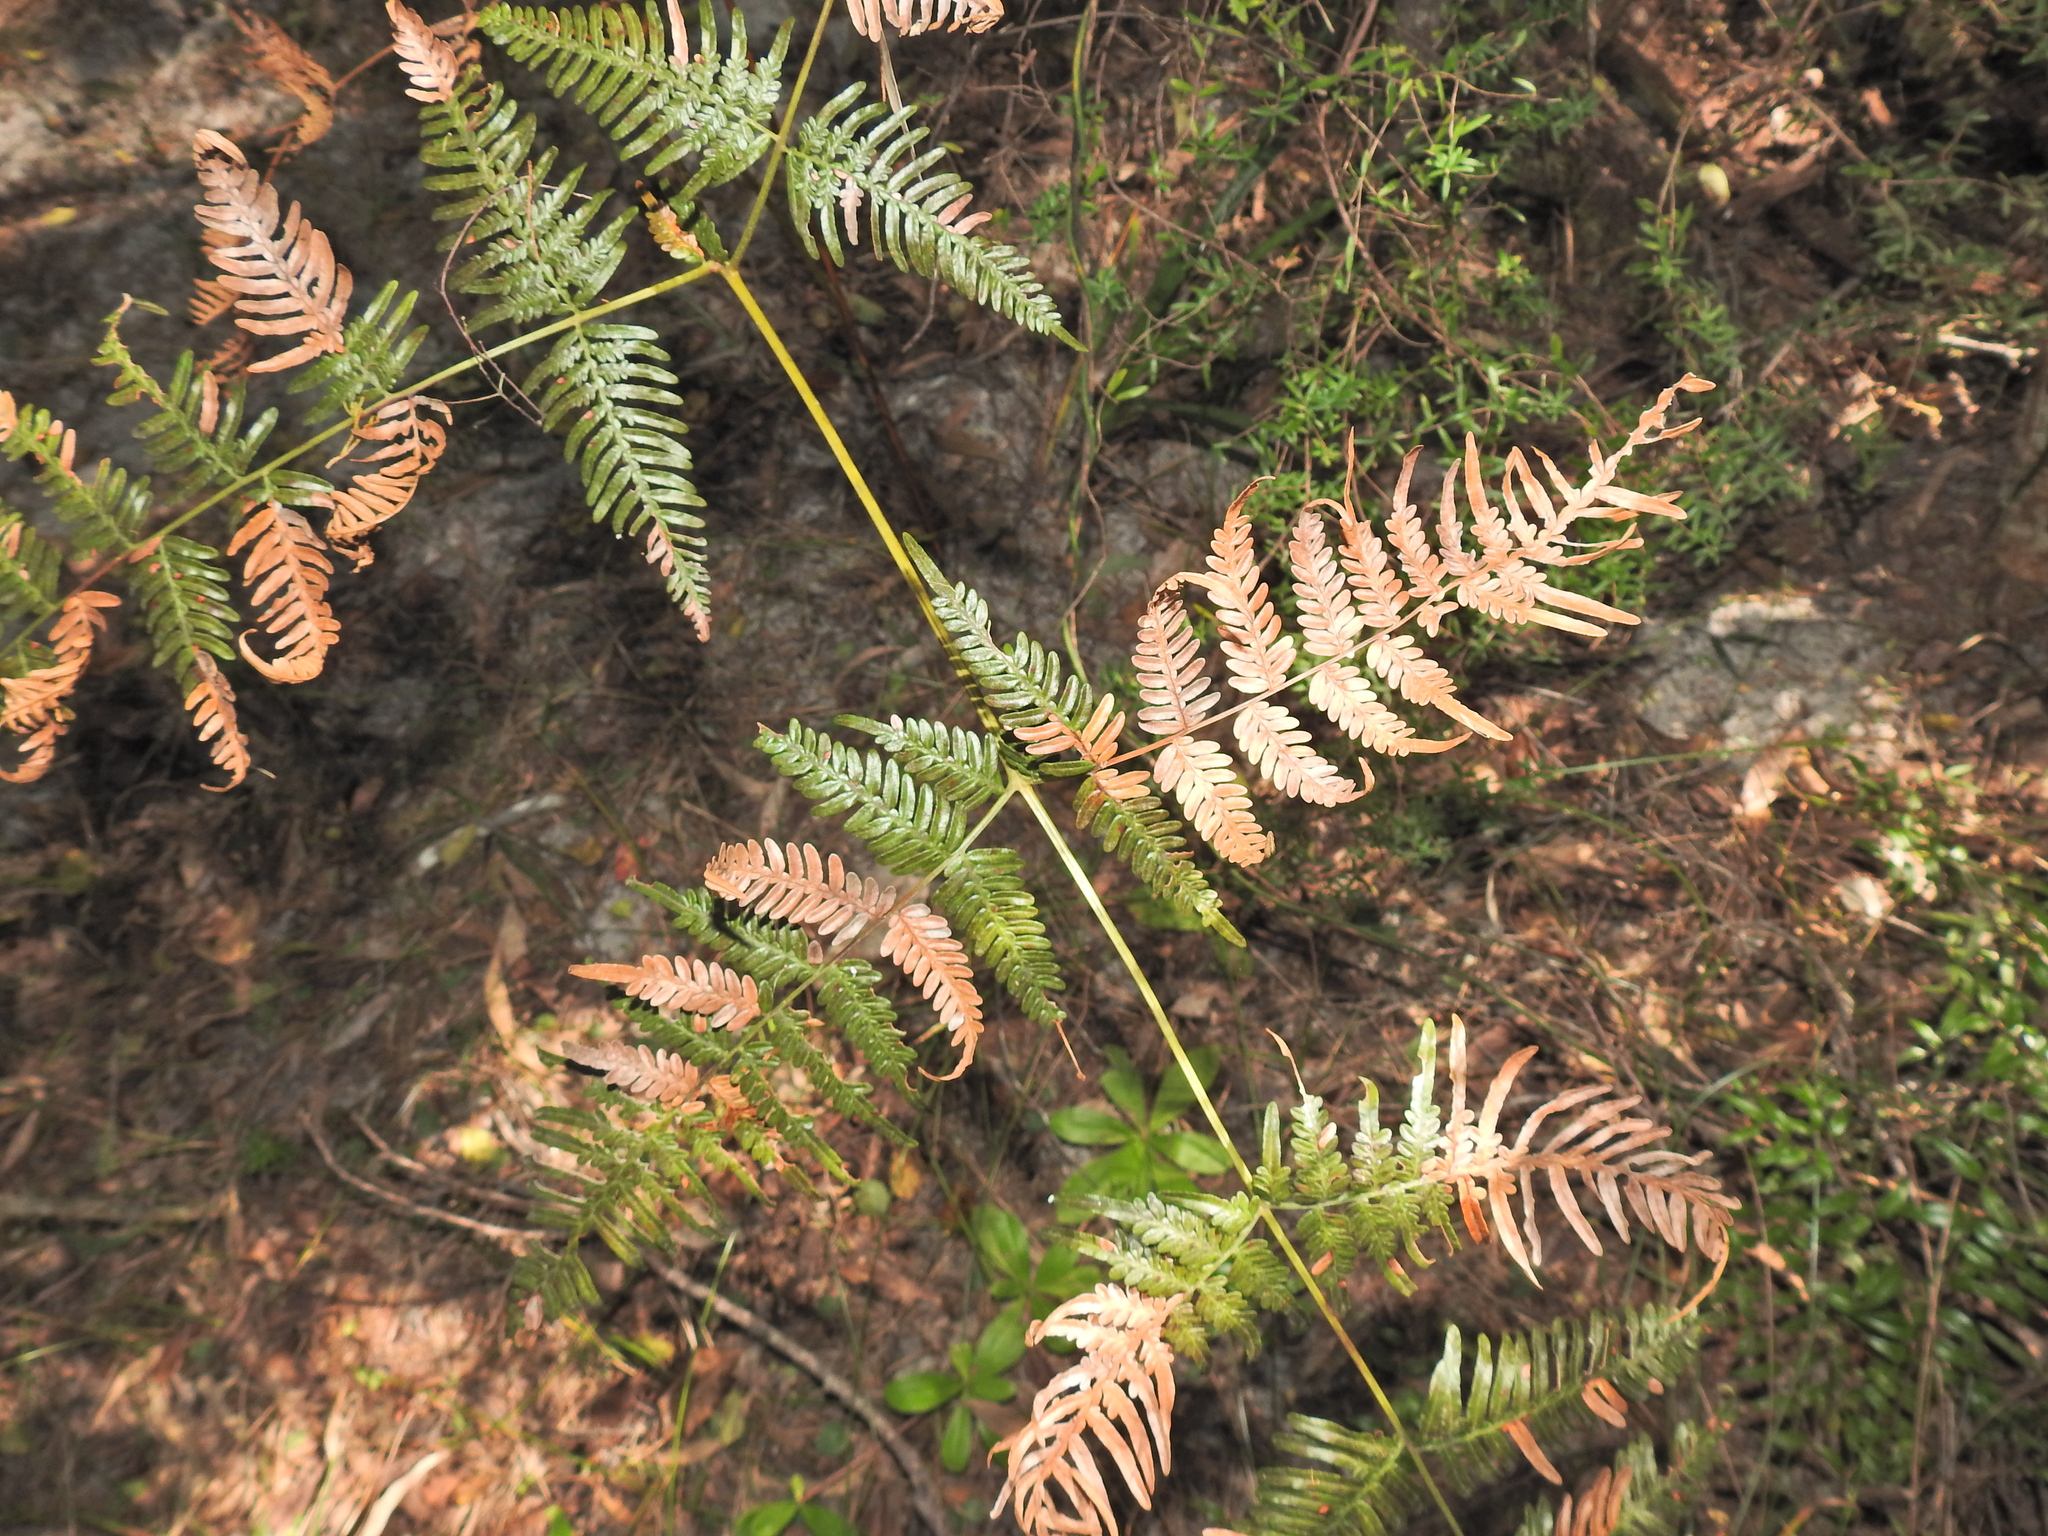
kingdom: Plantae
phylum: Tracheophyta
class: Polypodiopsida
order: Polypodiales
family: Dennstaedtiaceae
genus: Pteridium
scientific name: Pteridium esculentum
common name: Bracken fern
